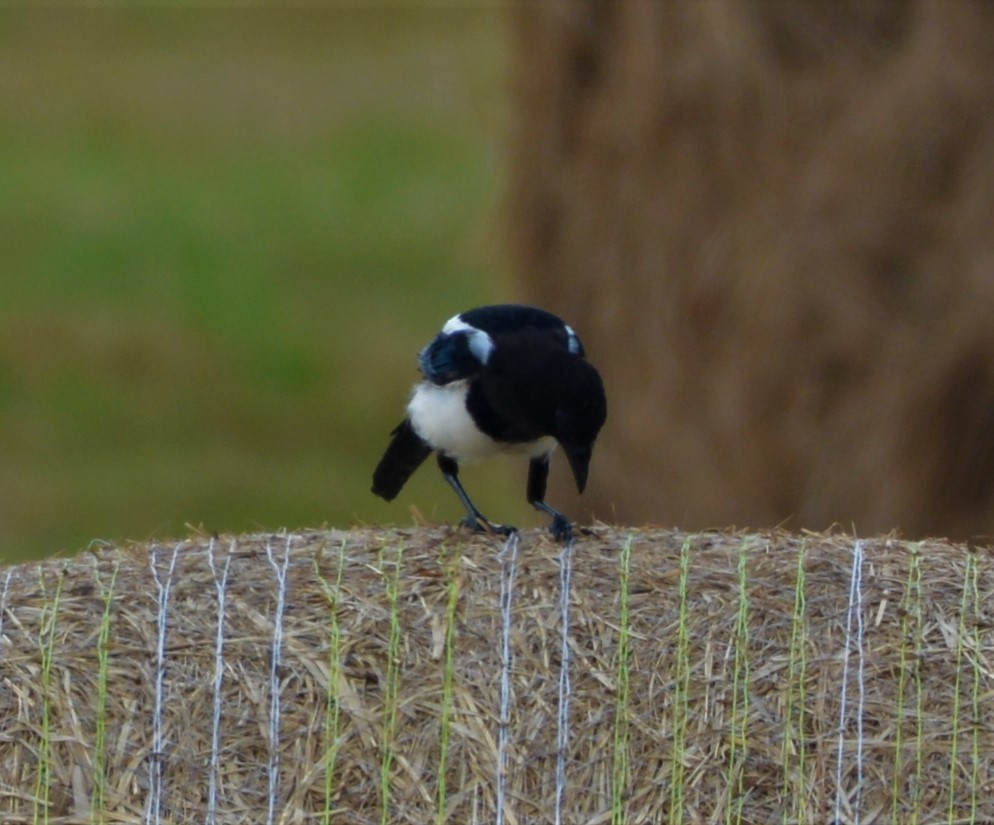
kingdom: Animalia
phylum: Chordata
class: Aves
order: Passeriformes
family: Corvidae
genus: Pica
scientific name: Pica pica
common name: Eurasian magpie
